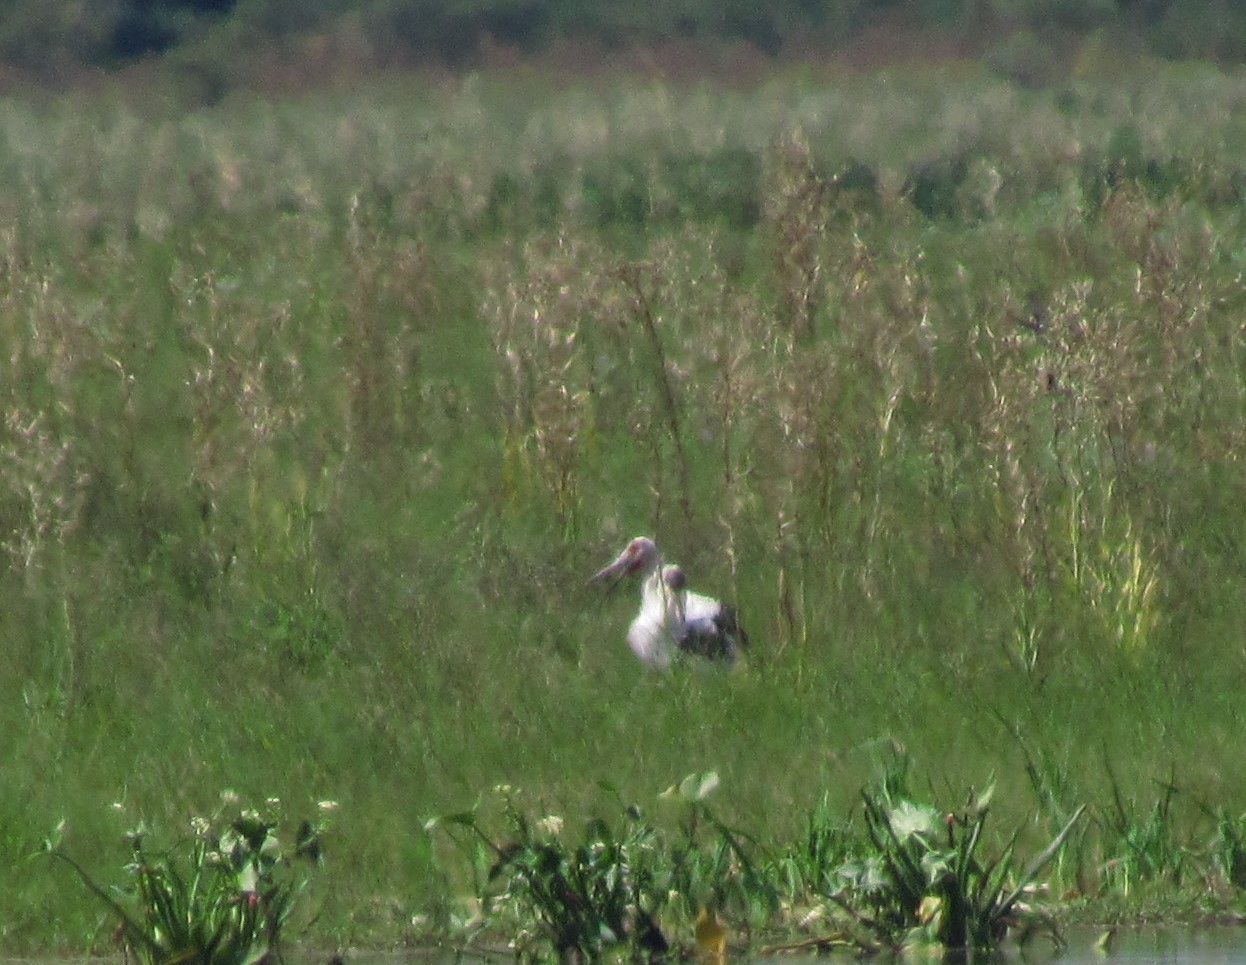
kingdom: Animalia
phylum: Chordata
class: Aves
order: Ciconiiformes
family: Ciconiidae
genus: Ciconia
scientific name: Ciconia maguari
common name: Maguari stork
